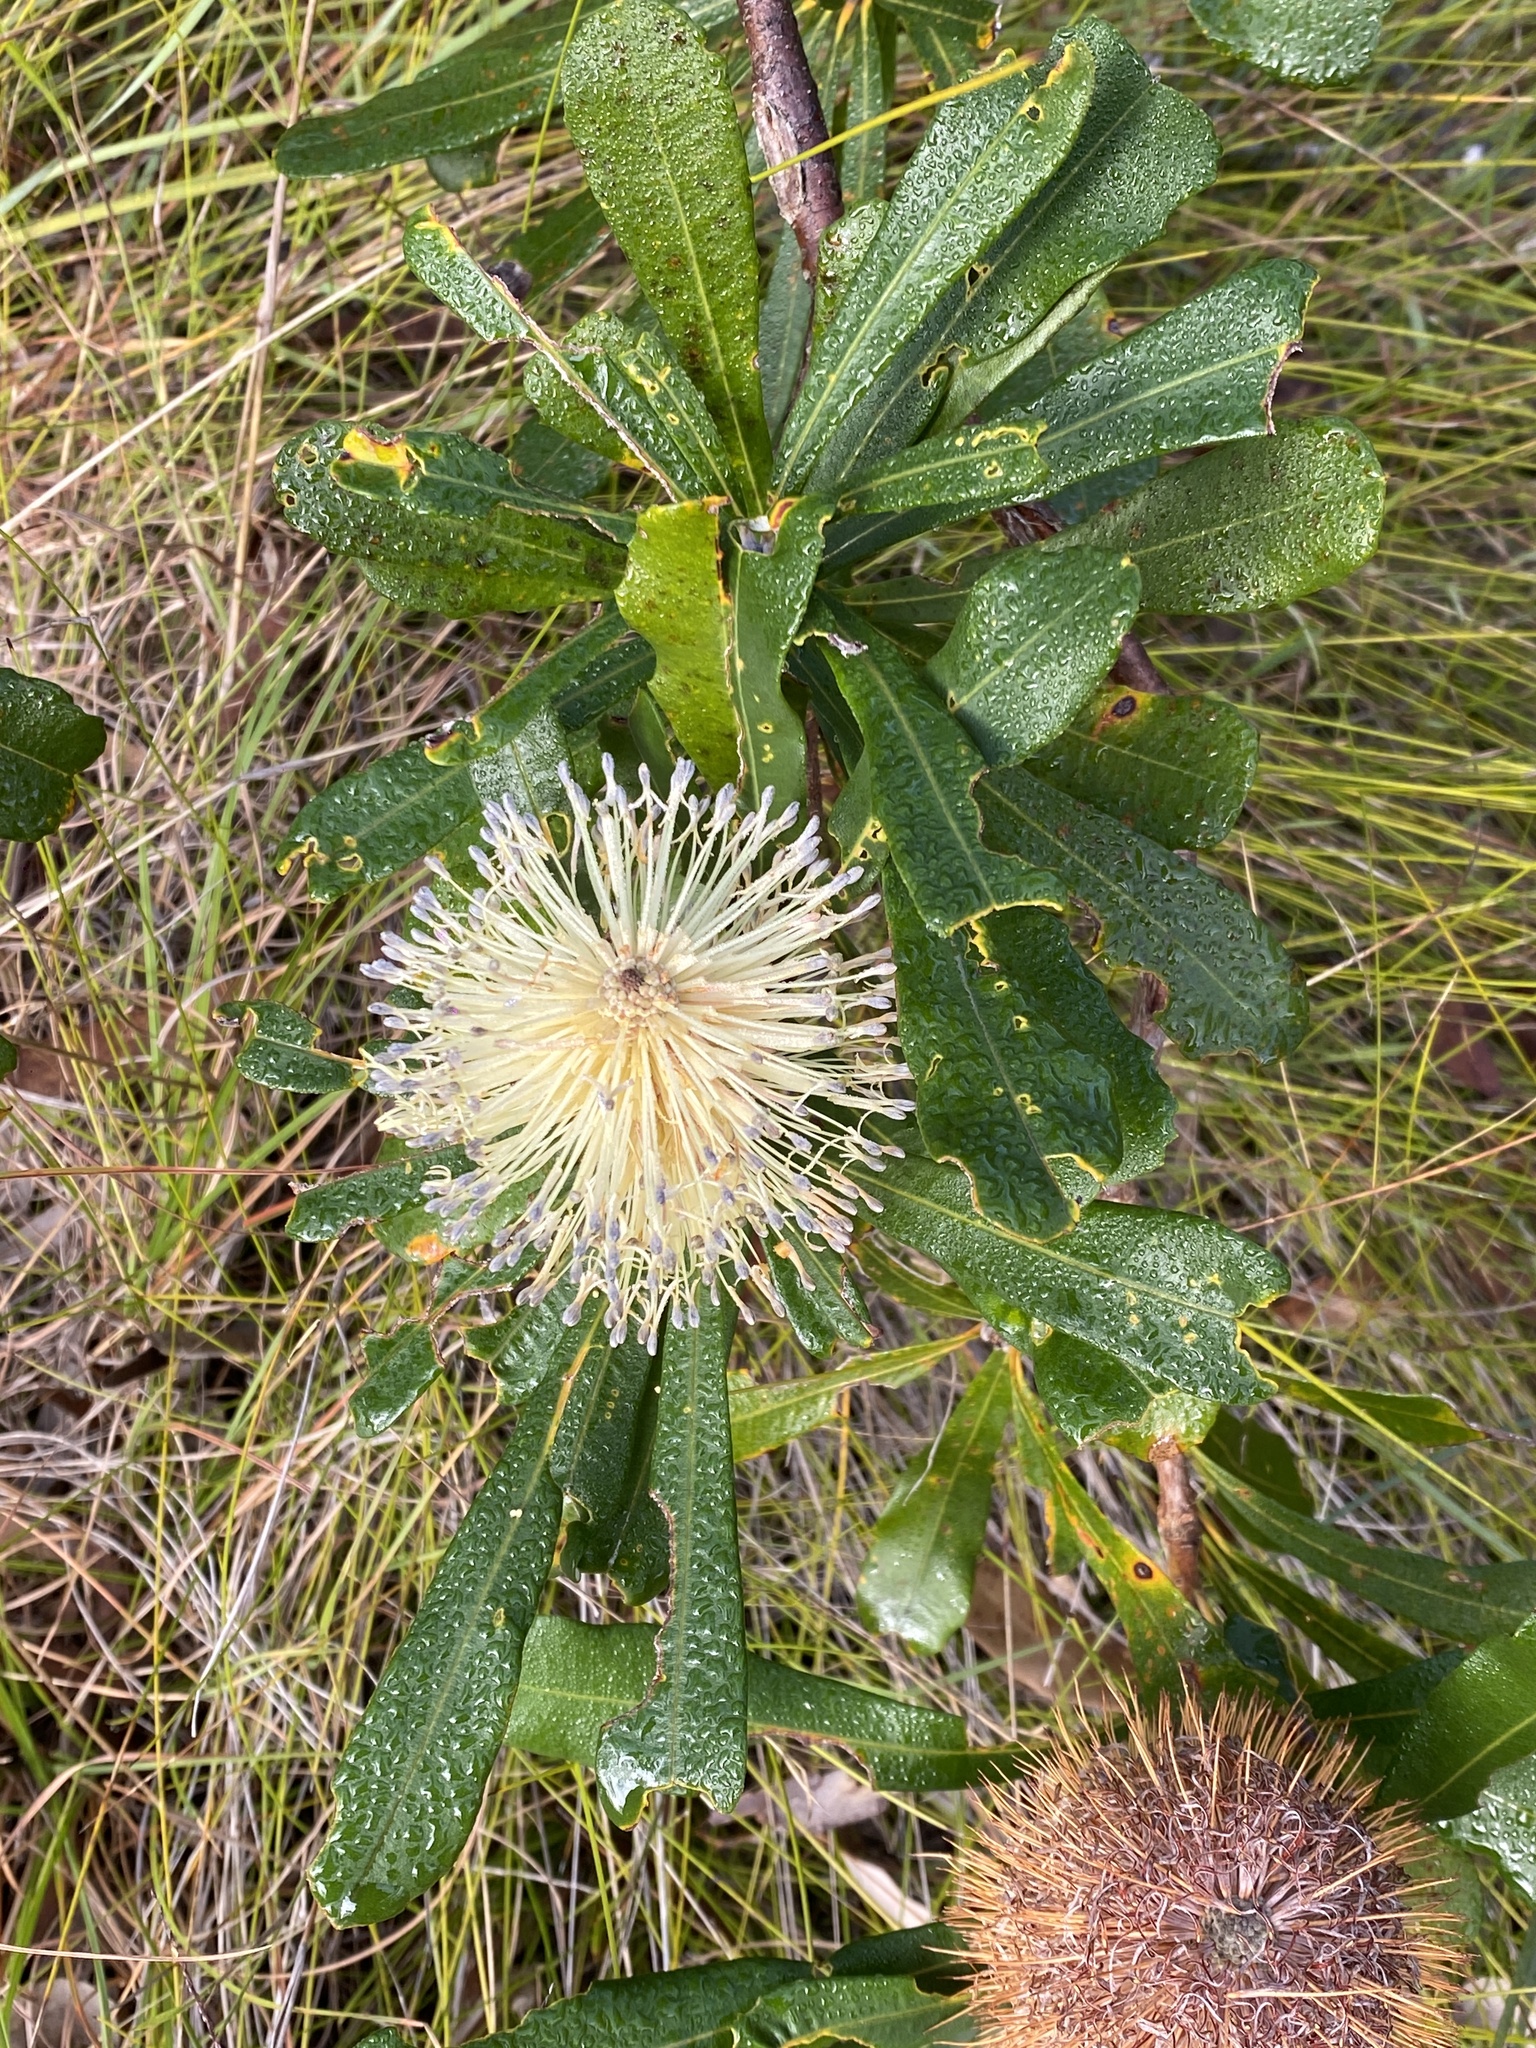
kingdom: Plantae
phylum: Tracheophyta
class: Magnoliopsida
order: Proteales
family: Proteaceae
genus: Banksia
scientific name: Banksia integrifolia
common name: White-honeysuckle
